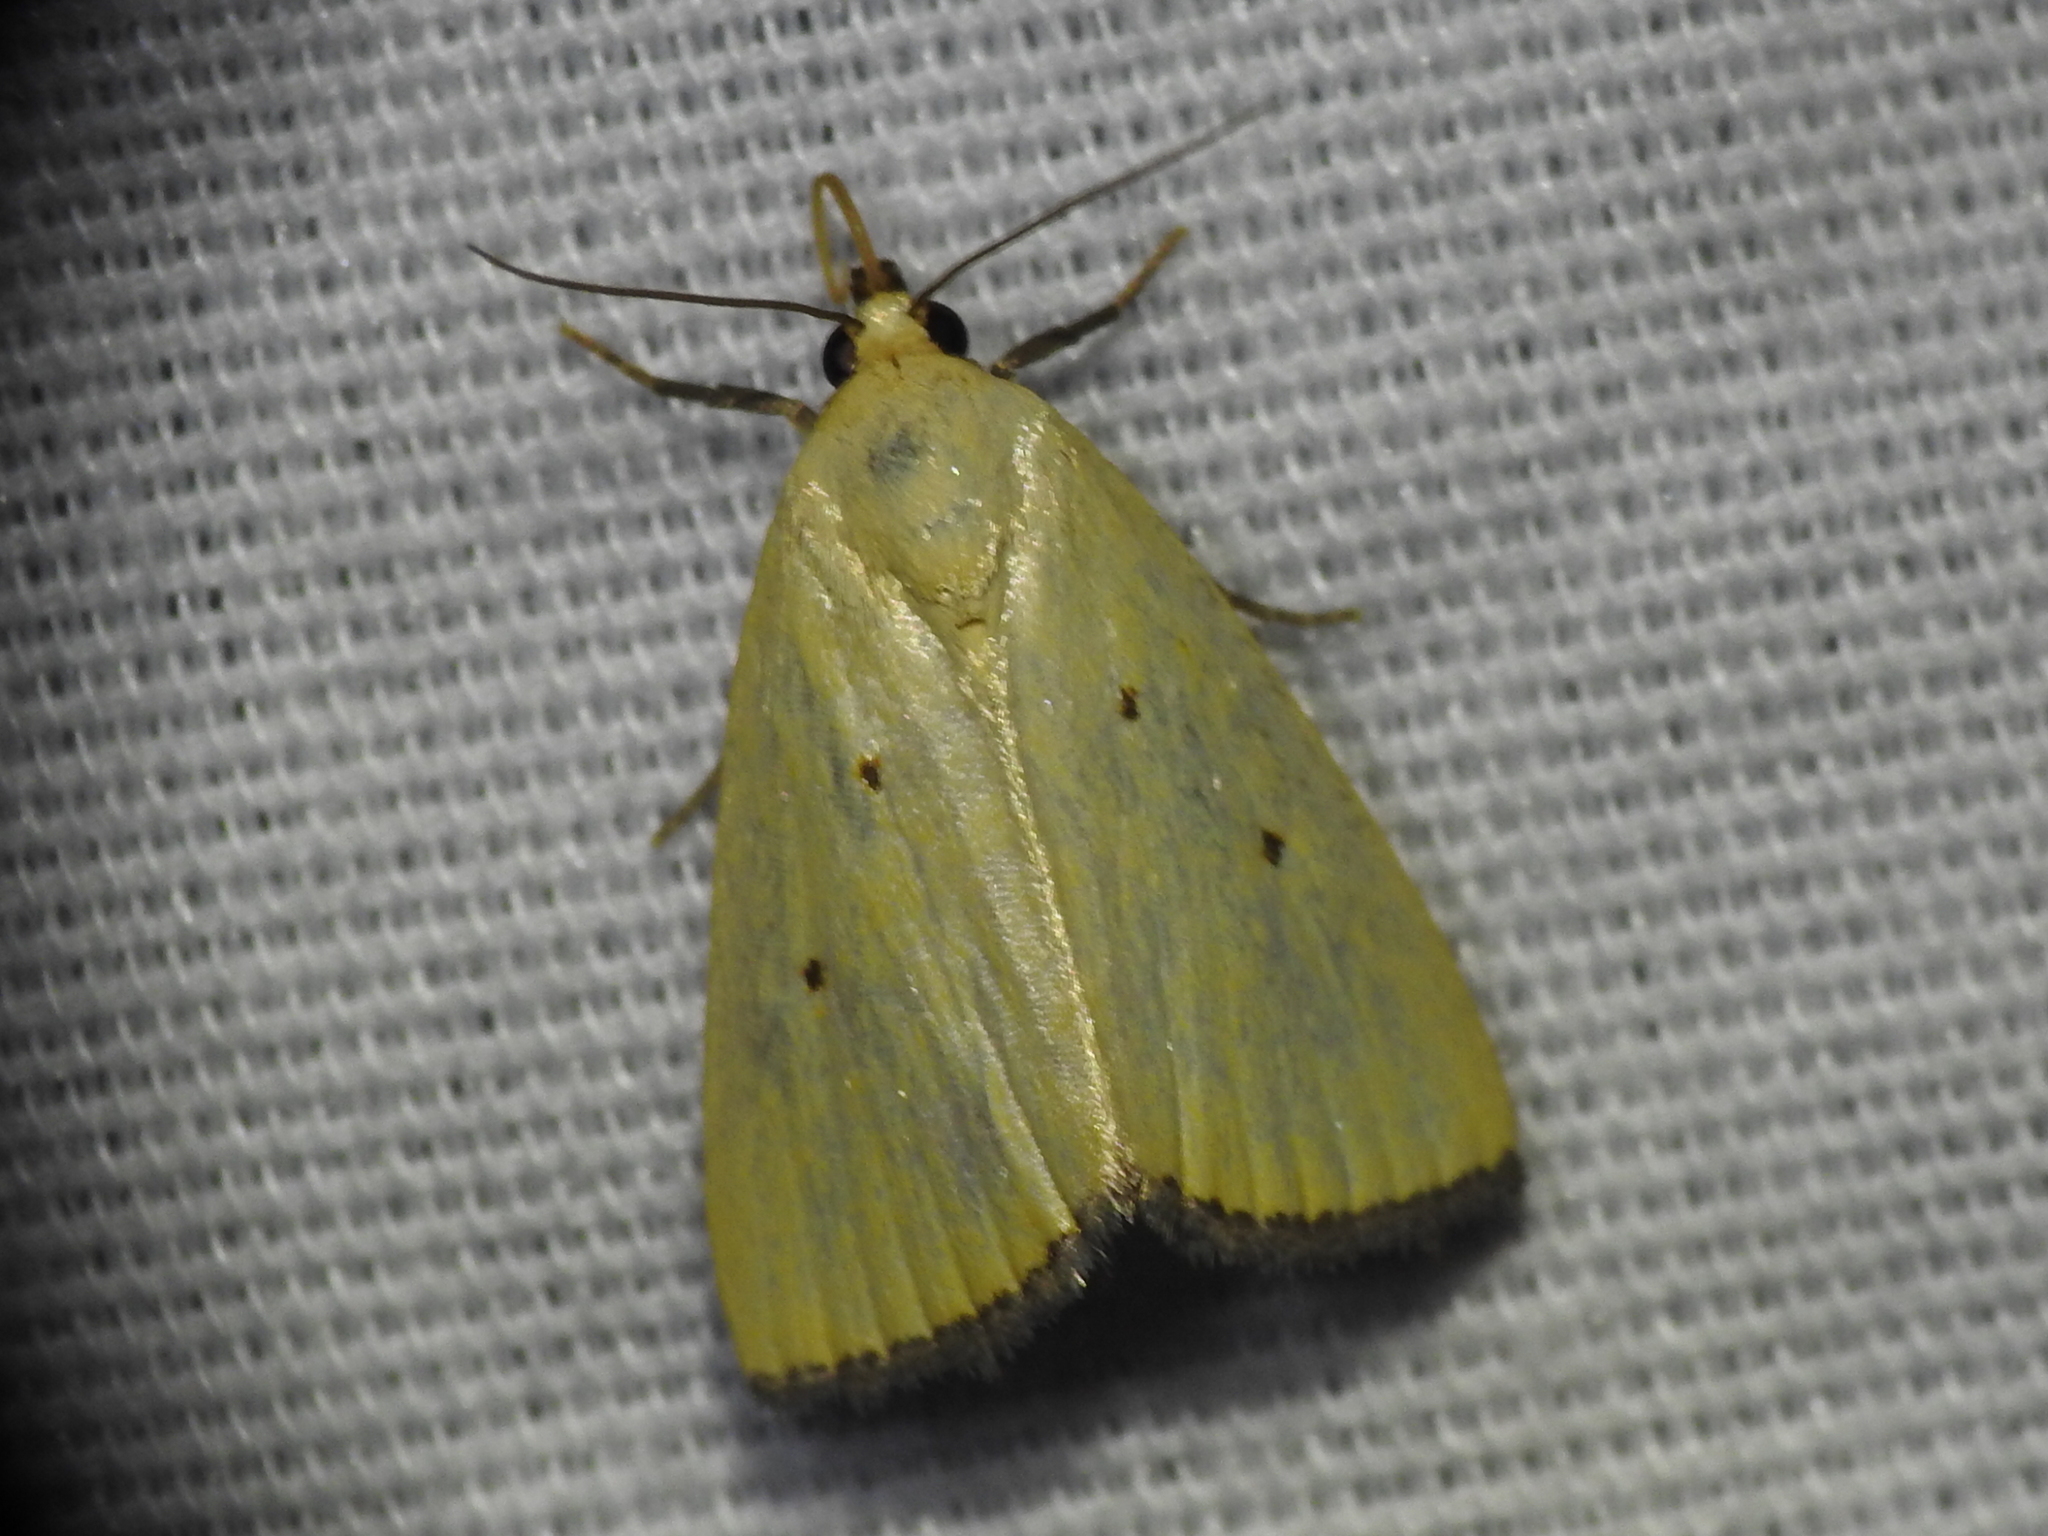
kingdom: Animalia
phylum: Arthropoda
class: Insecta
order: Lepidoptera
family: Noctuidae
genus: Marimatha
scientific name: Marimatha nigrofimbria
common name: Black-bordered lemon moth
